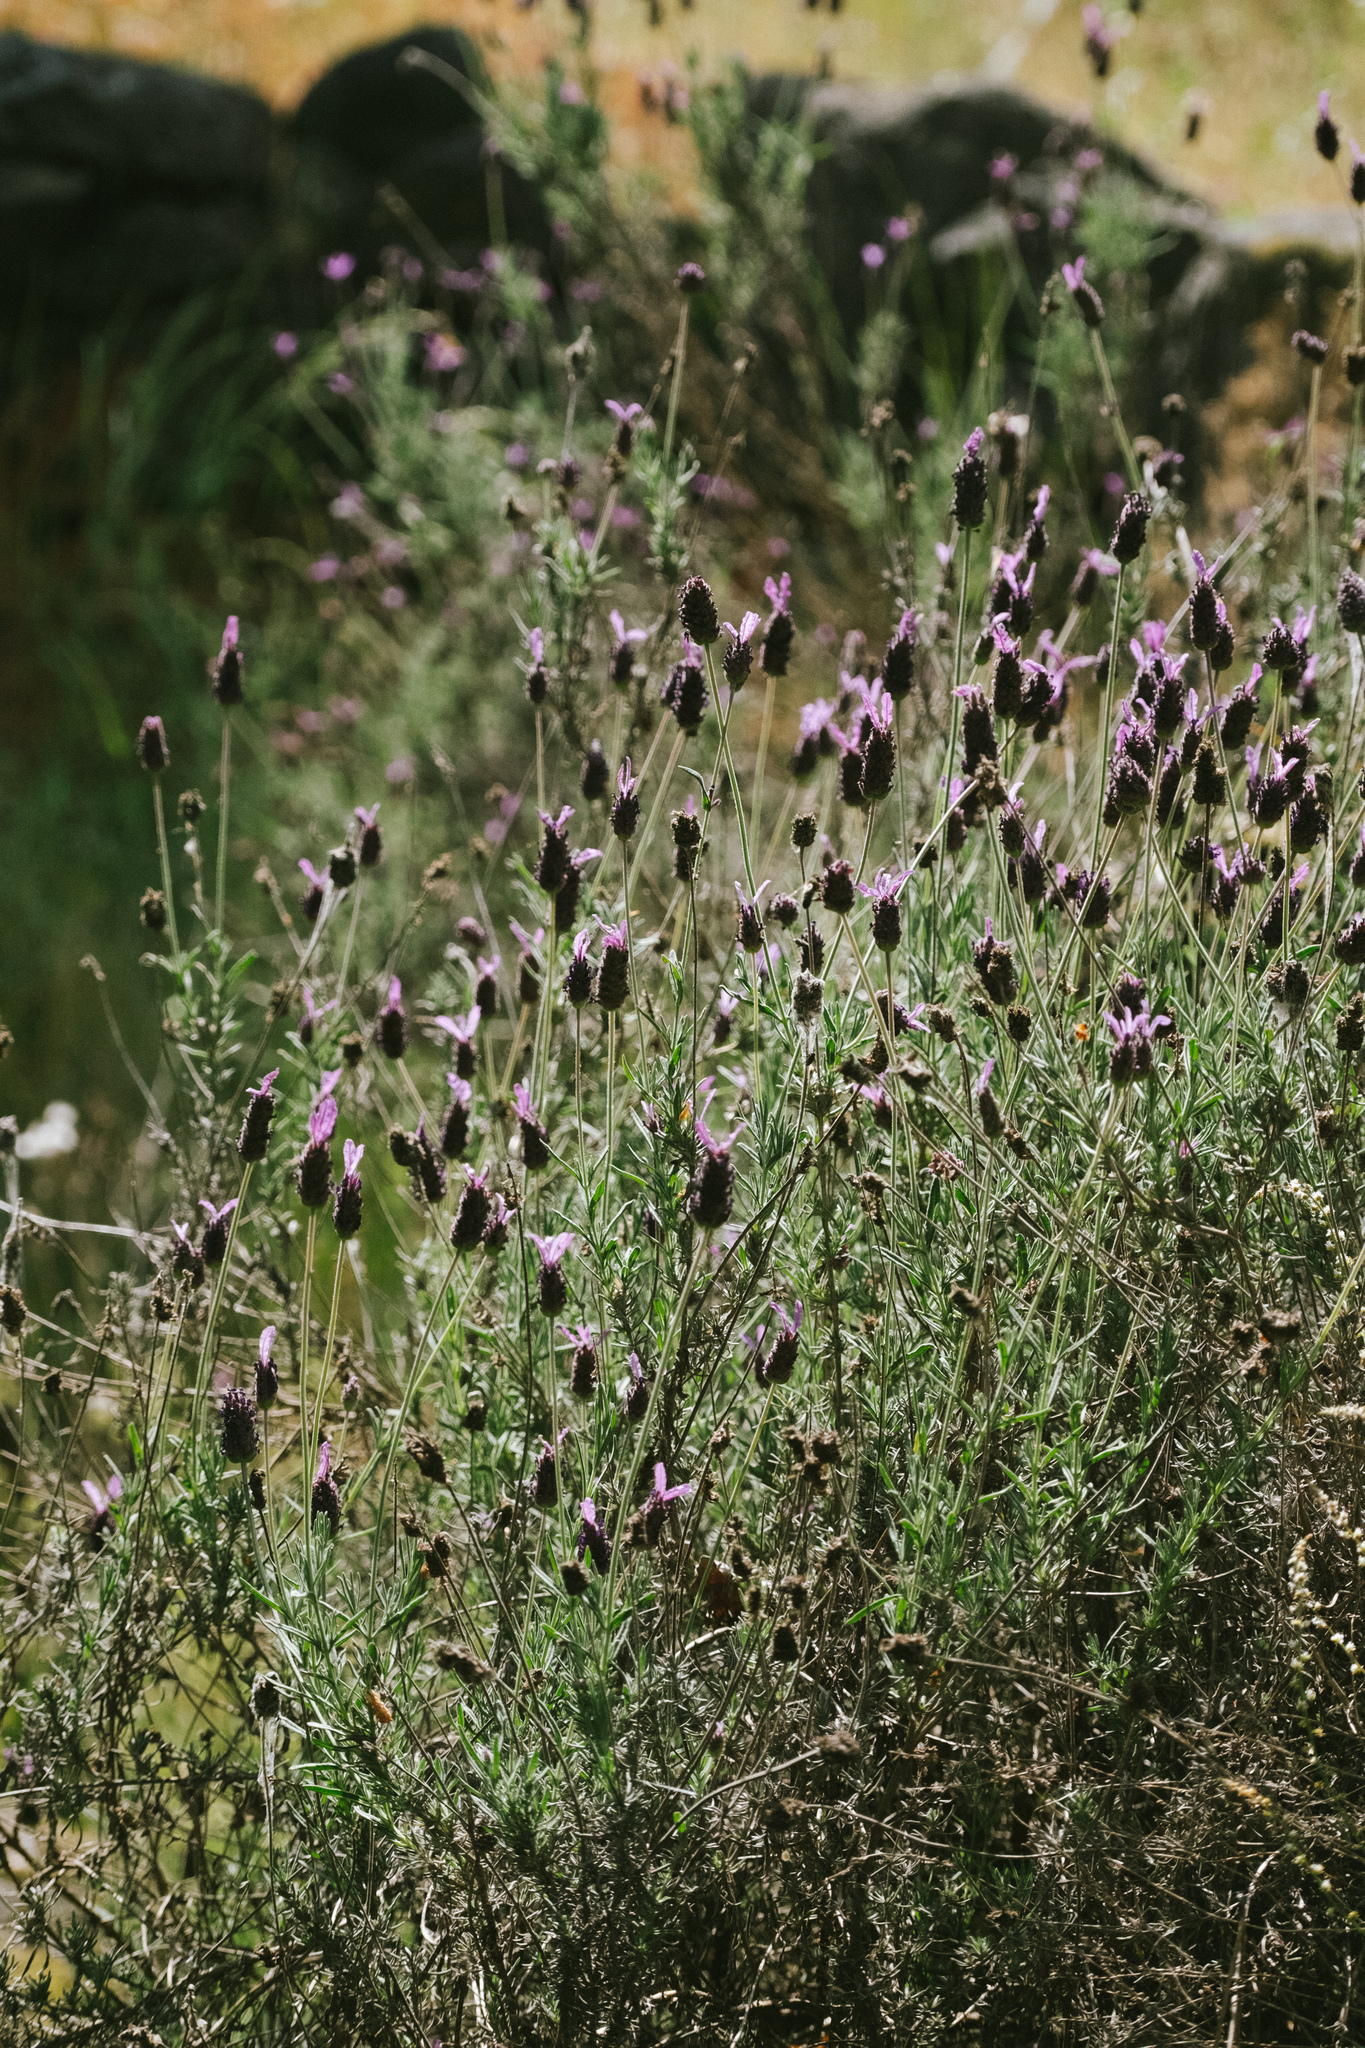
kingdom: Plantae
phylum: Tracheophyta
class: Magnoliopsida
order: Lamiales
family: Lamiaceae
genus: Lavandula
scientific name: Lavandula pedunculata
